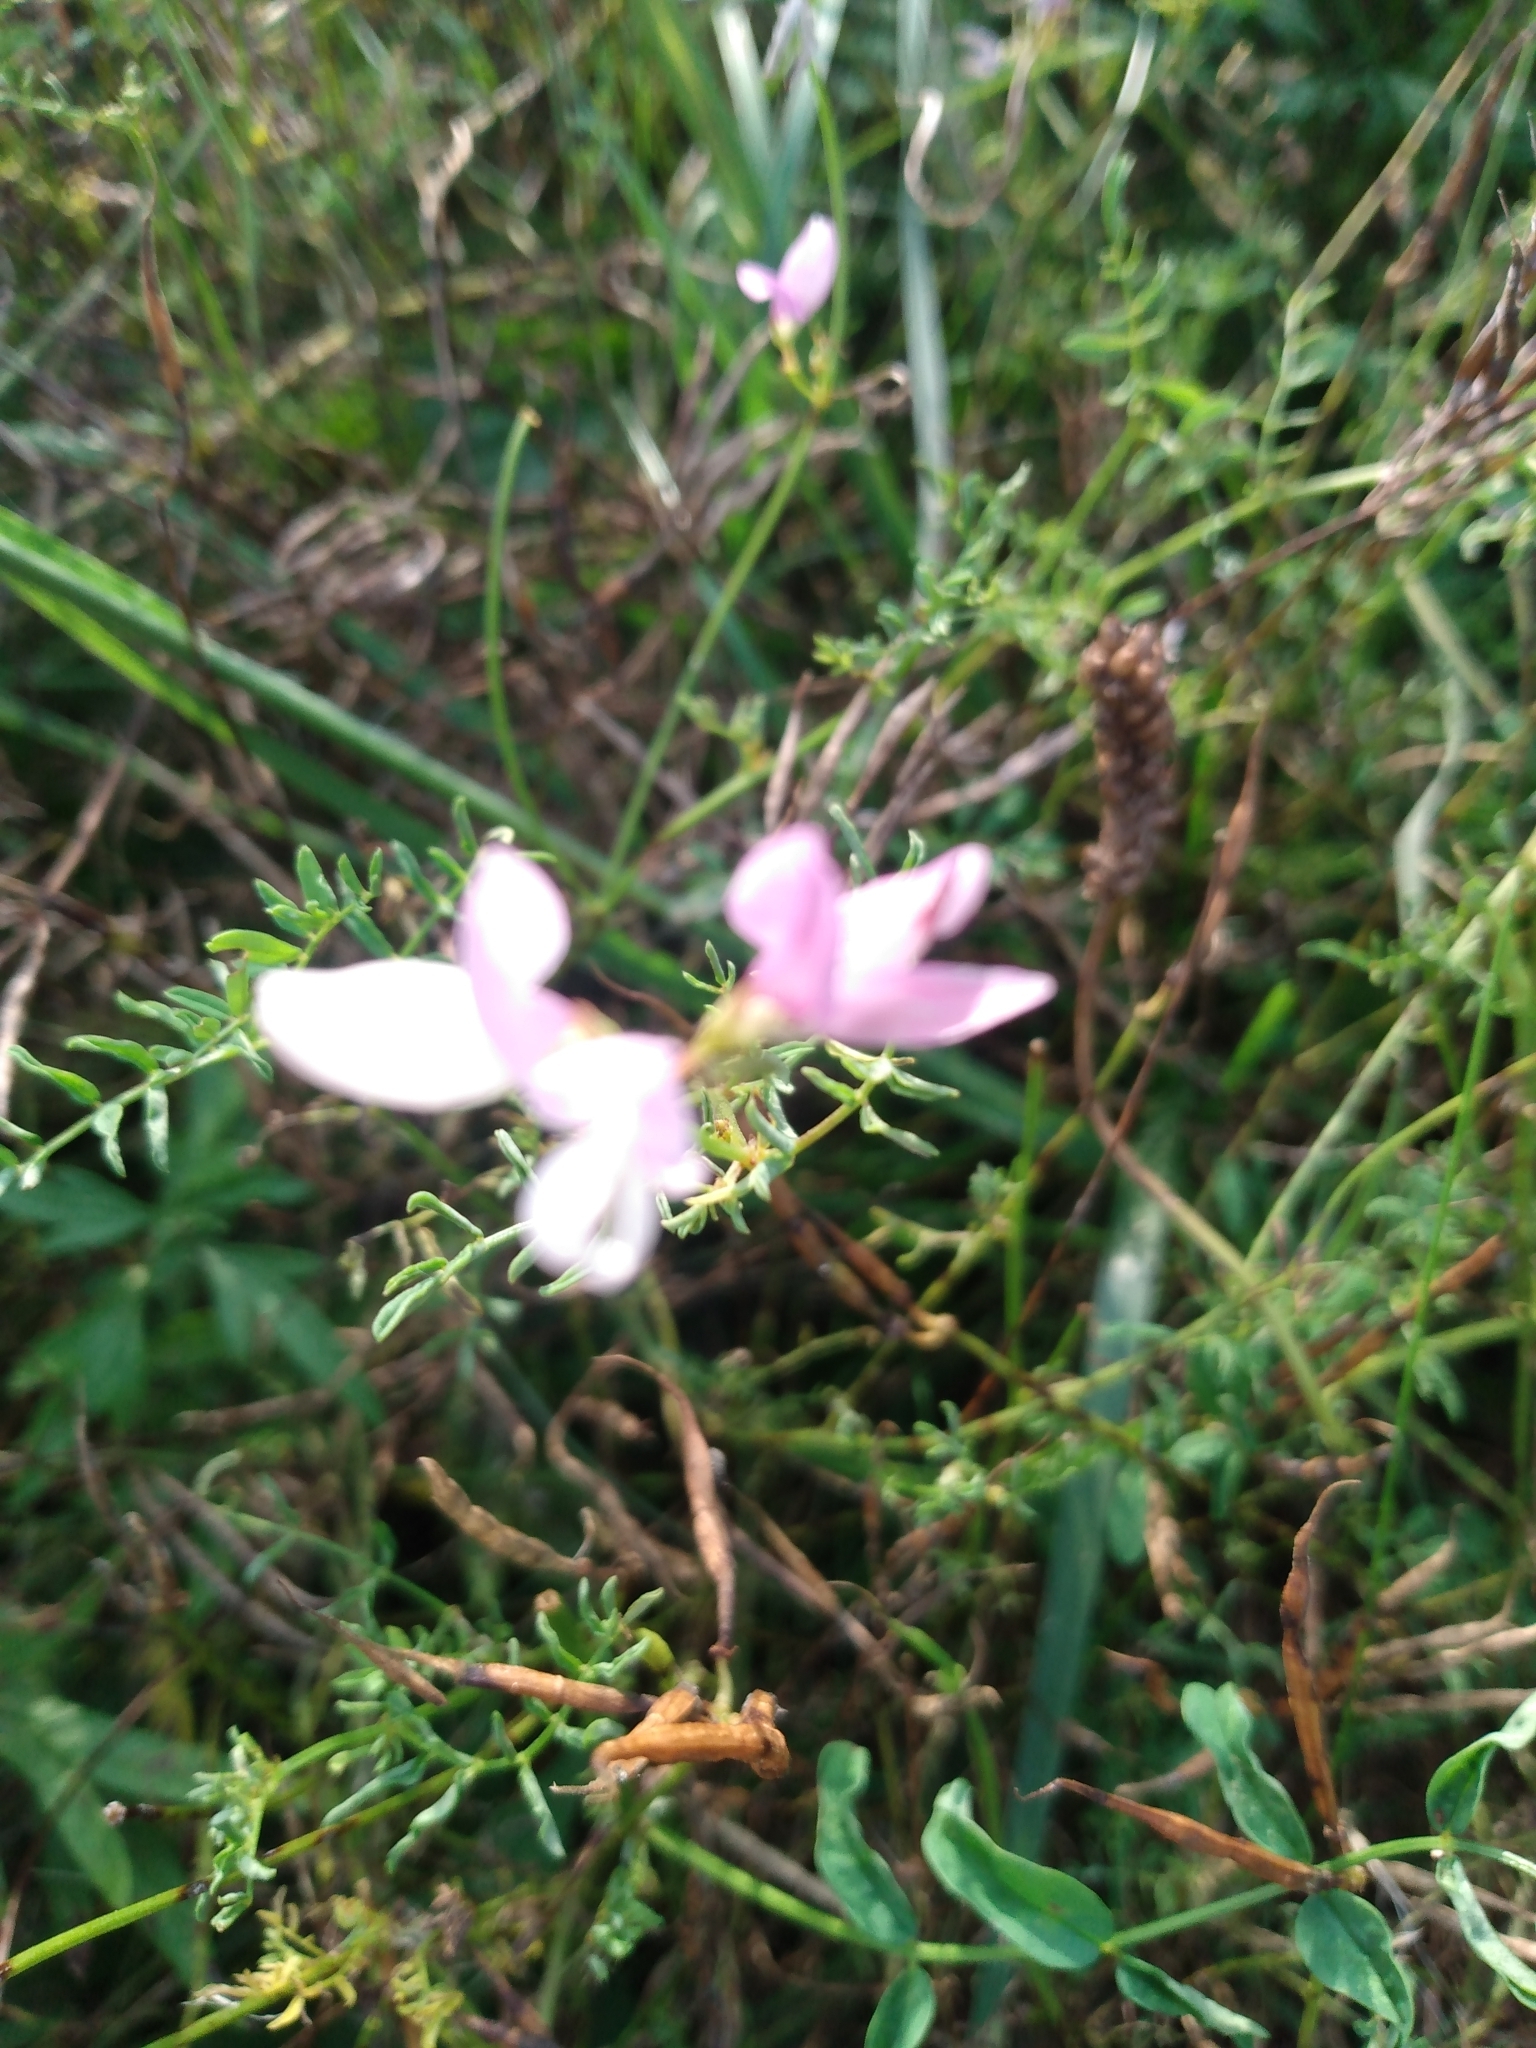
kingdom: Plantae
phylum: Tracheophyta
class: Magnoliopsida
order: Fabales
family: Fabaceae
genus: Coronilla
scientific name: Coronilla varia
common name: Crownvetch
